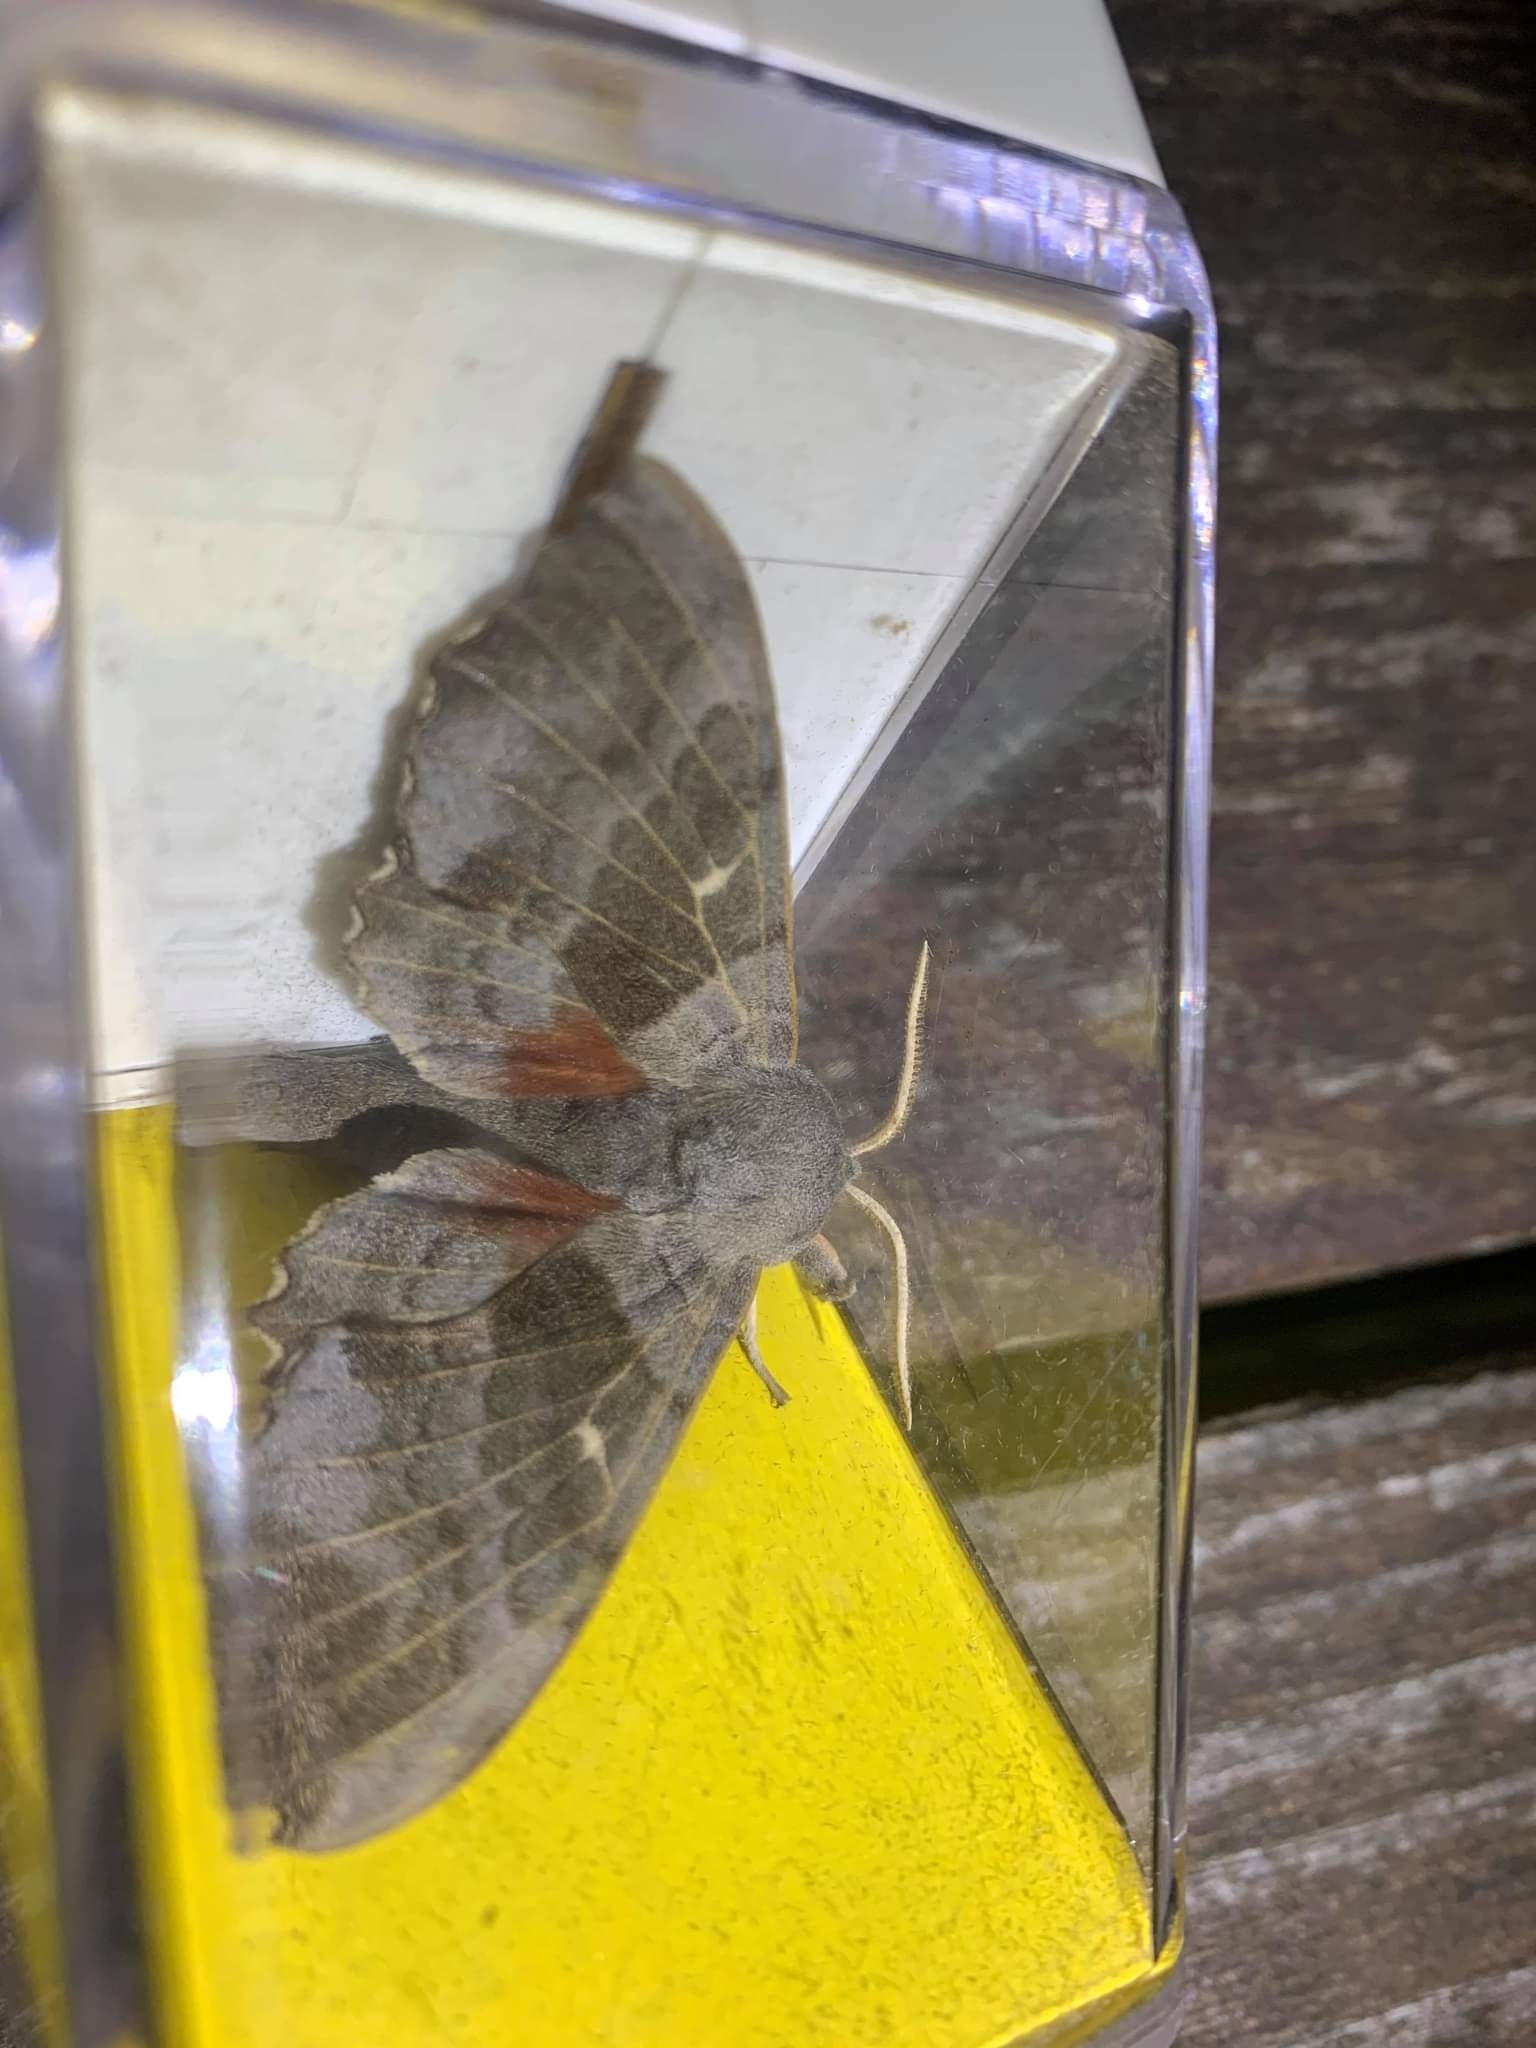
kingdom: Animalia
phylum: Arthropoda
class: Insecta
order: Lepidoptera
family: Sphingidae
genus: Laothoe
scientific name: Laothoe populi
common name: Poplar hawk-moth
